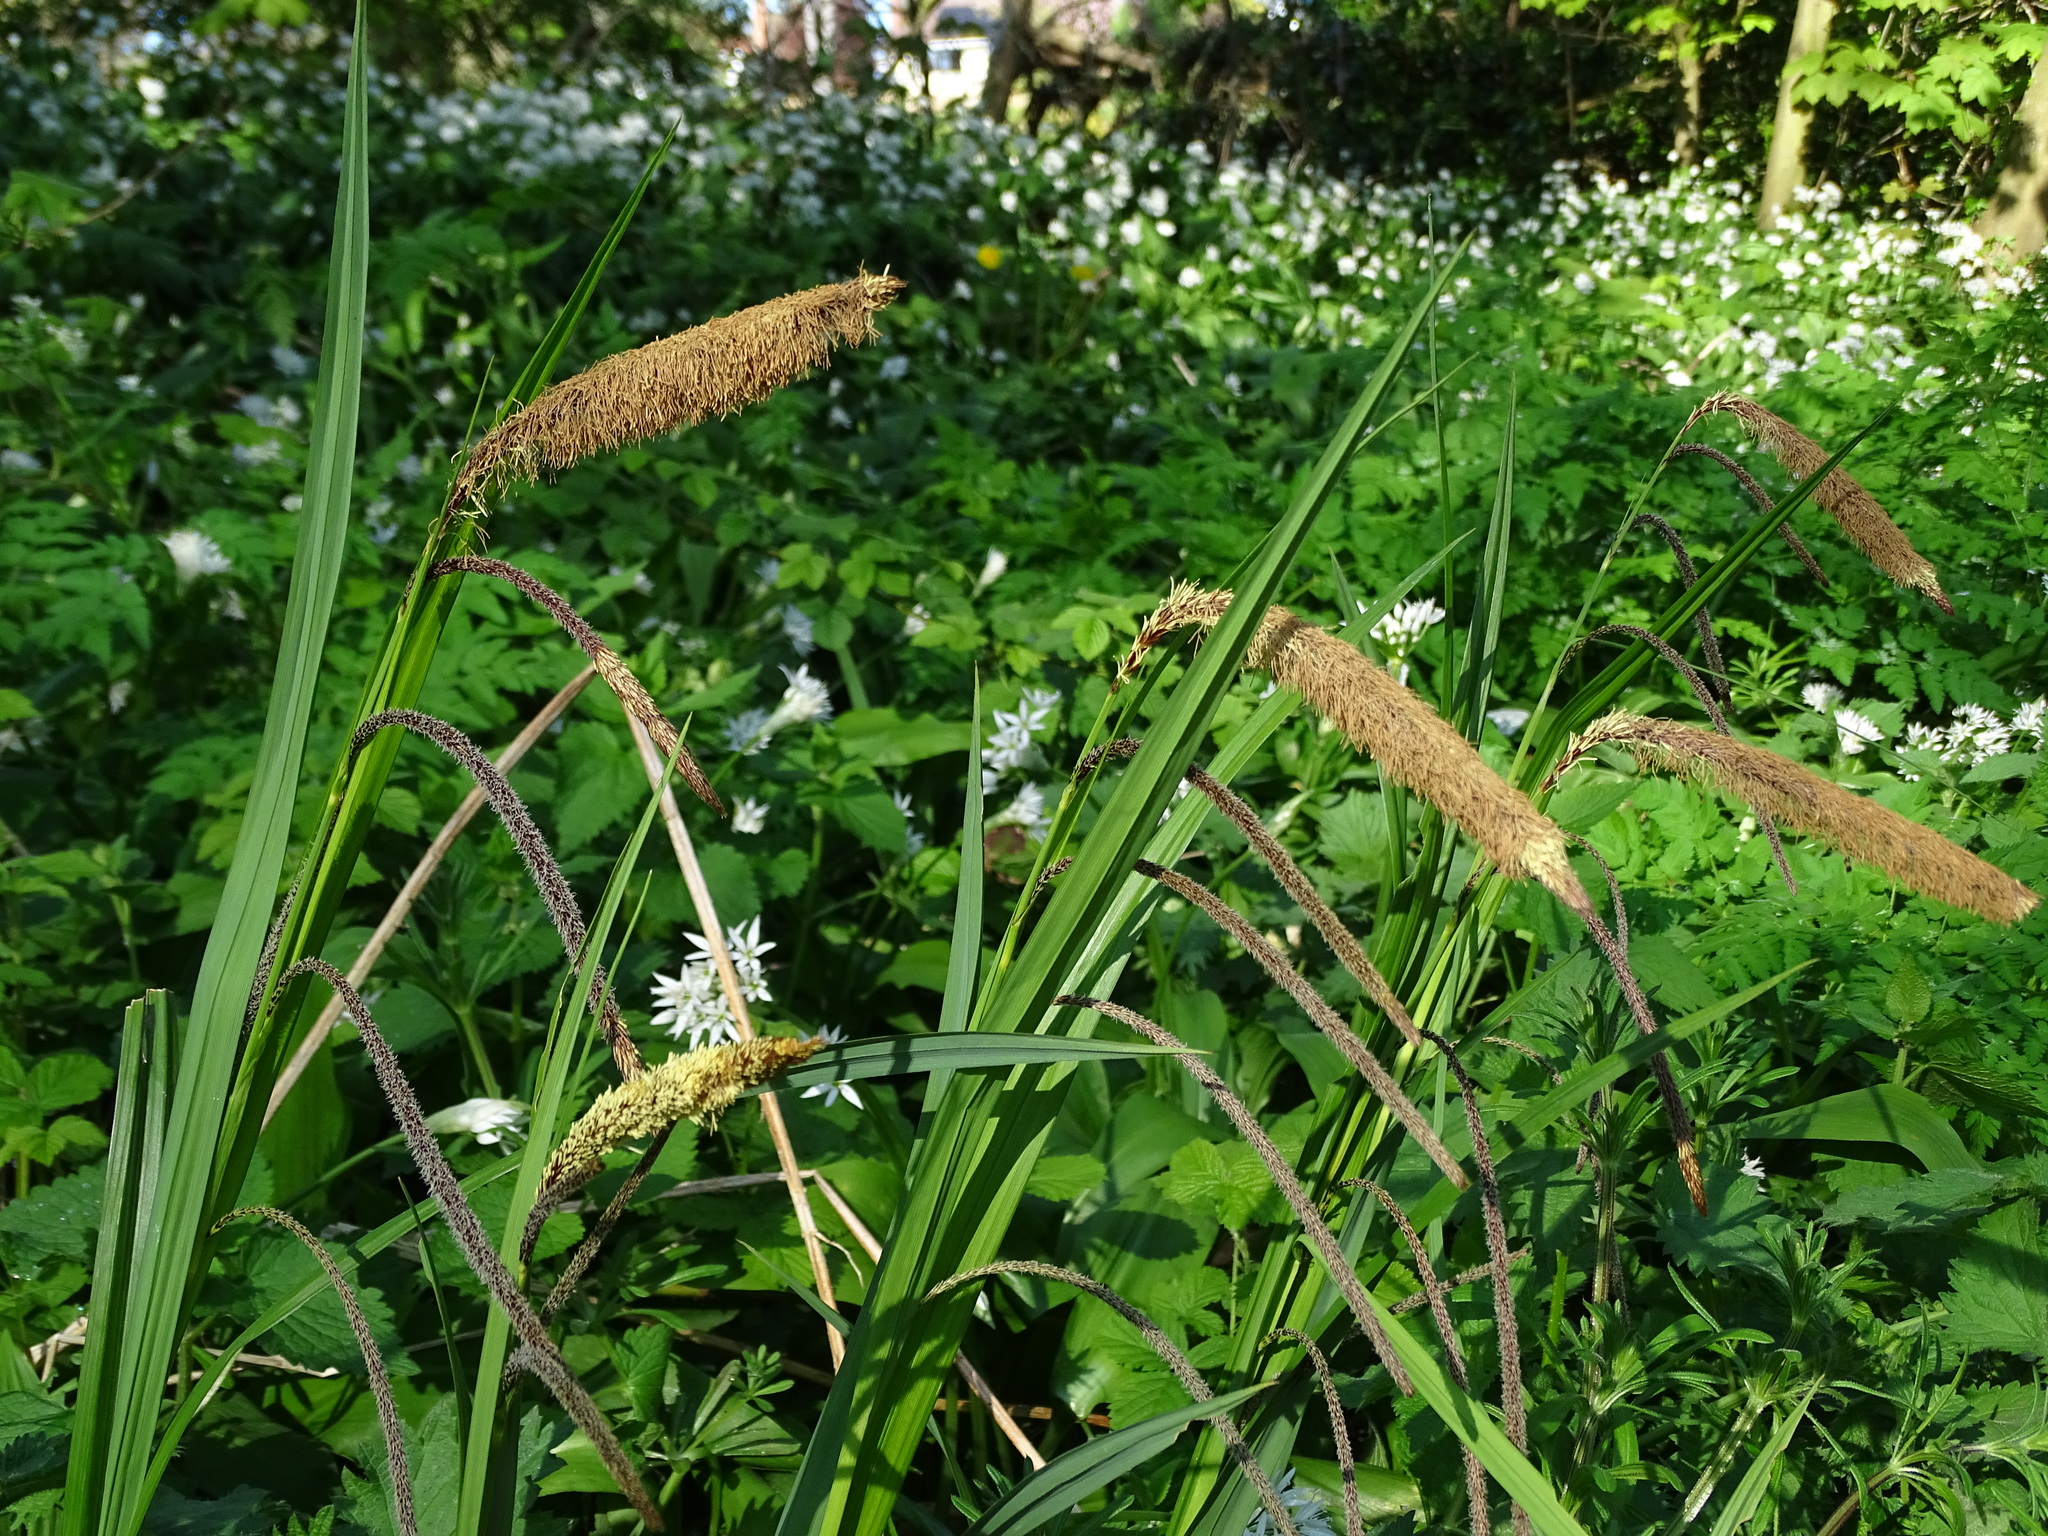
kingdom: Plantae
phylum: Tracheophyta
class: Liliopsida
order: Poales
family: Cyperaceae
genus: Carex
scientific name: Carex pendula
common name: Pendulous sedge
